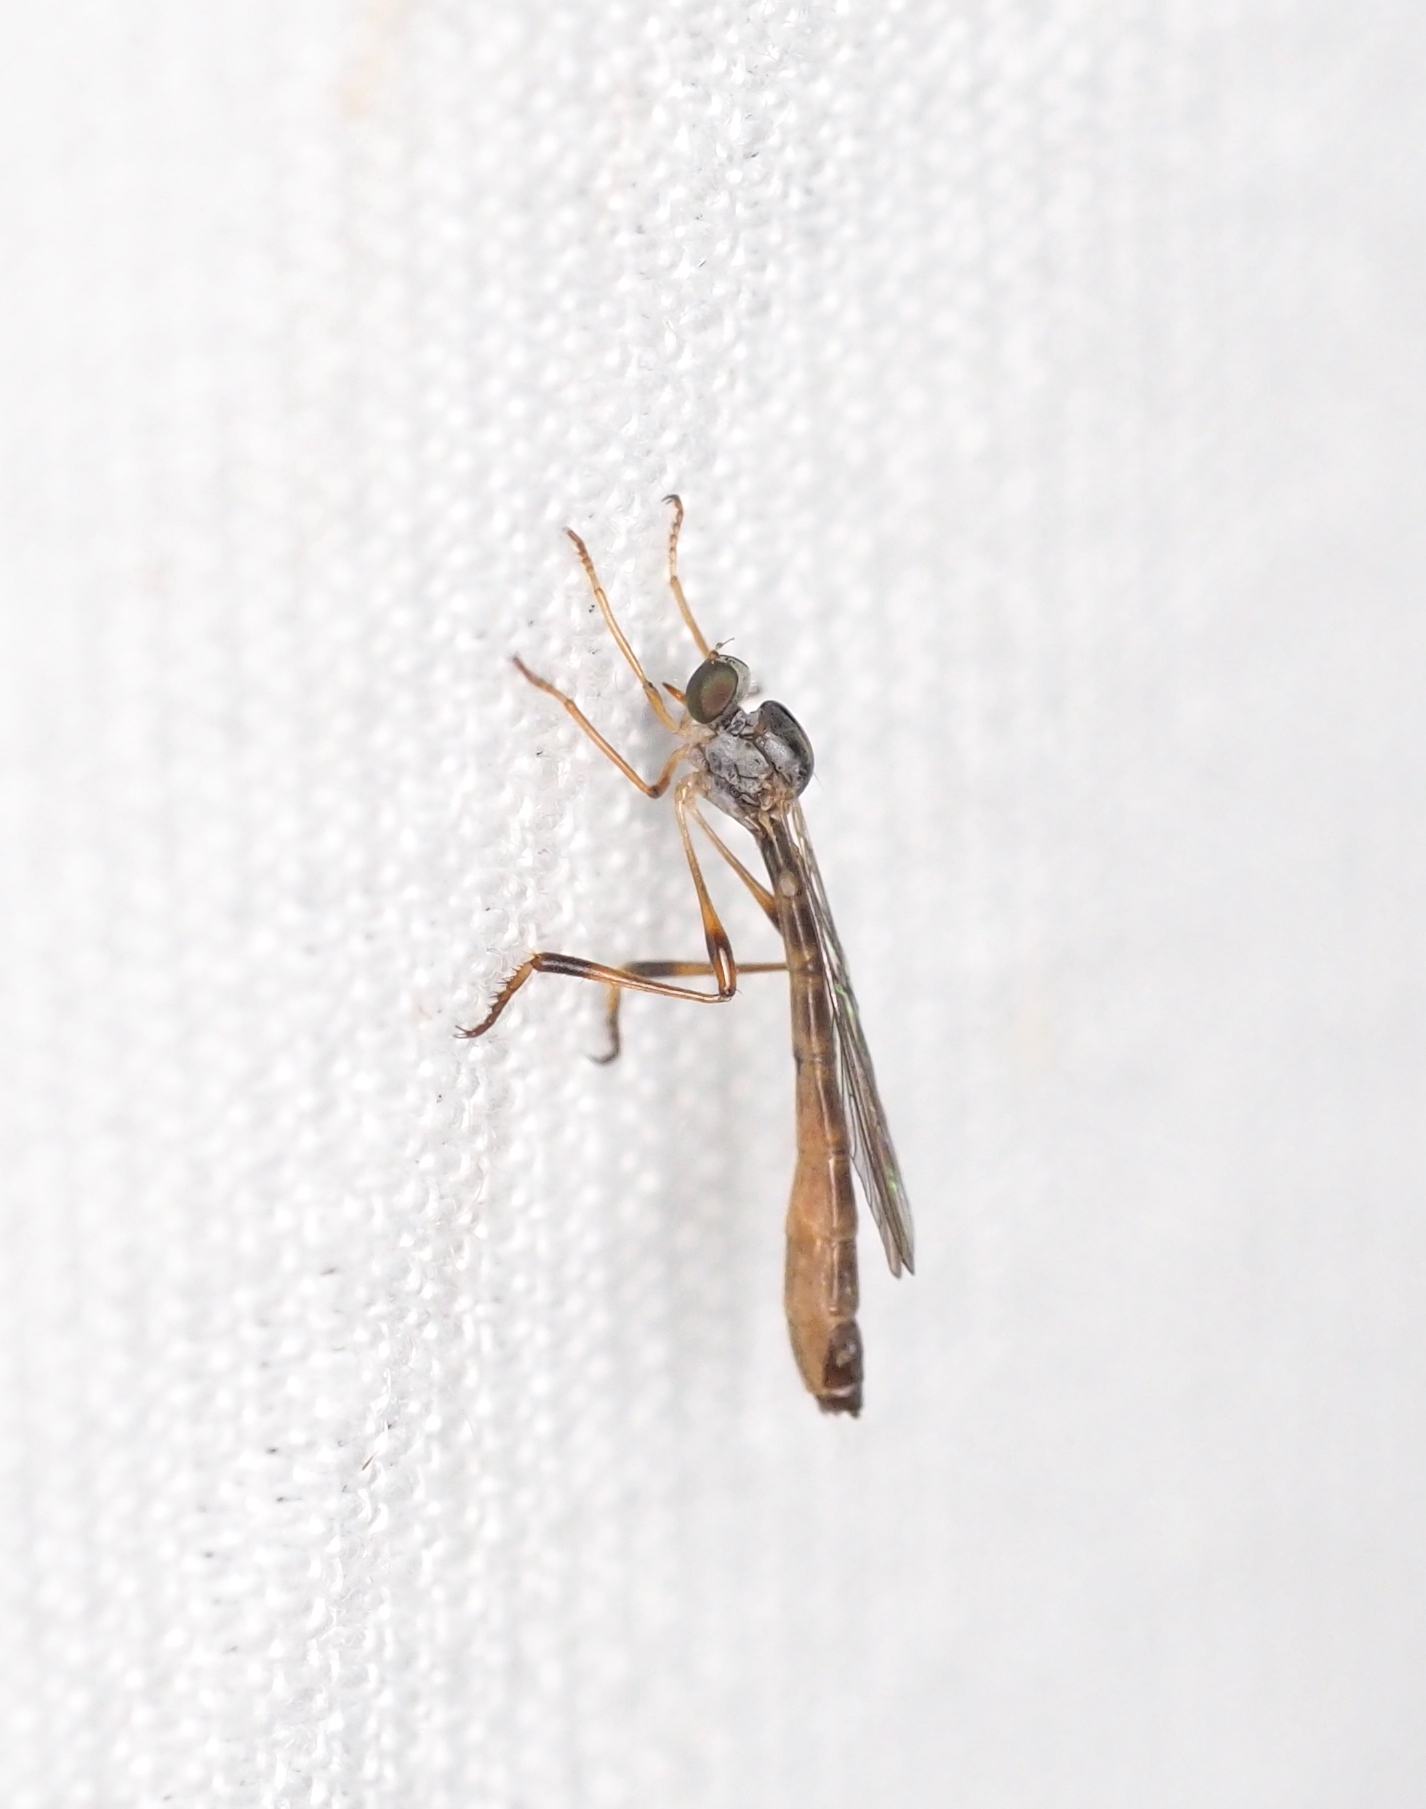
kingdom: Animalia
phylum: Arthropoda
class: Insecta
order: Diptera
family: Asilidae
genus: Leptogaster
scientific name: Leptogaster subtilis
